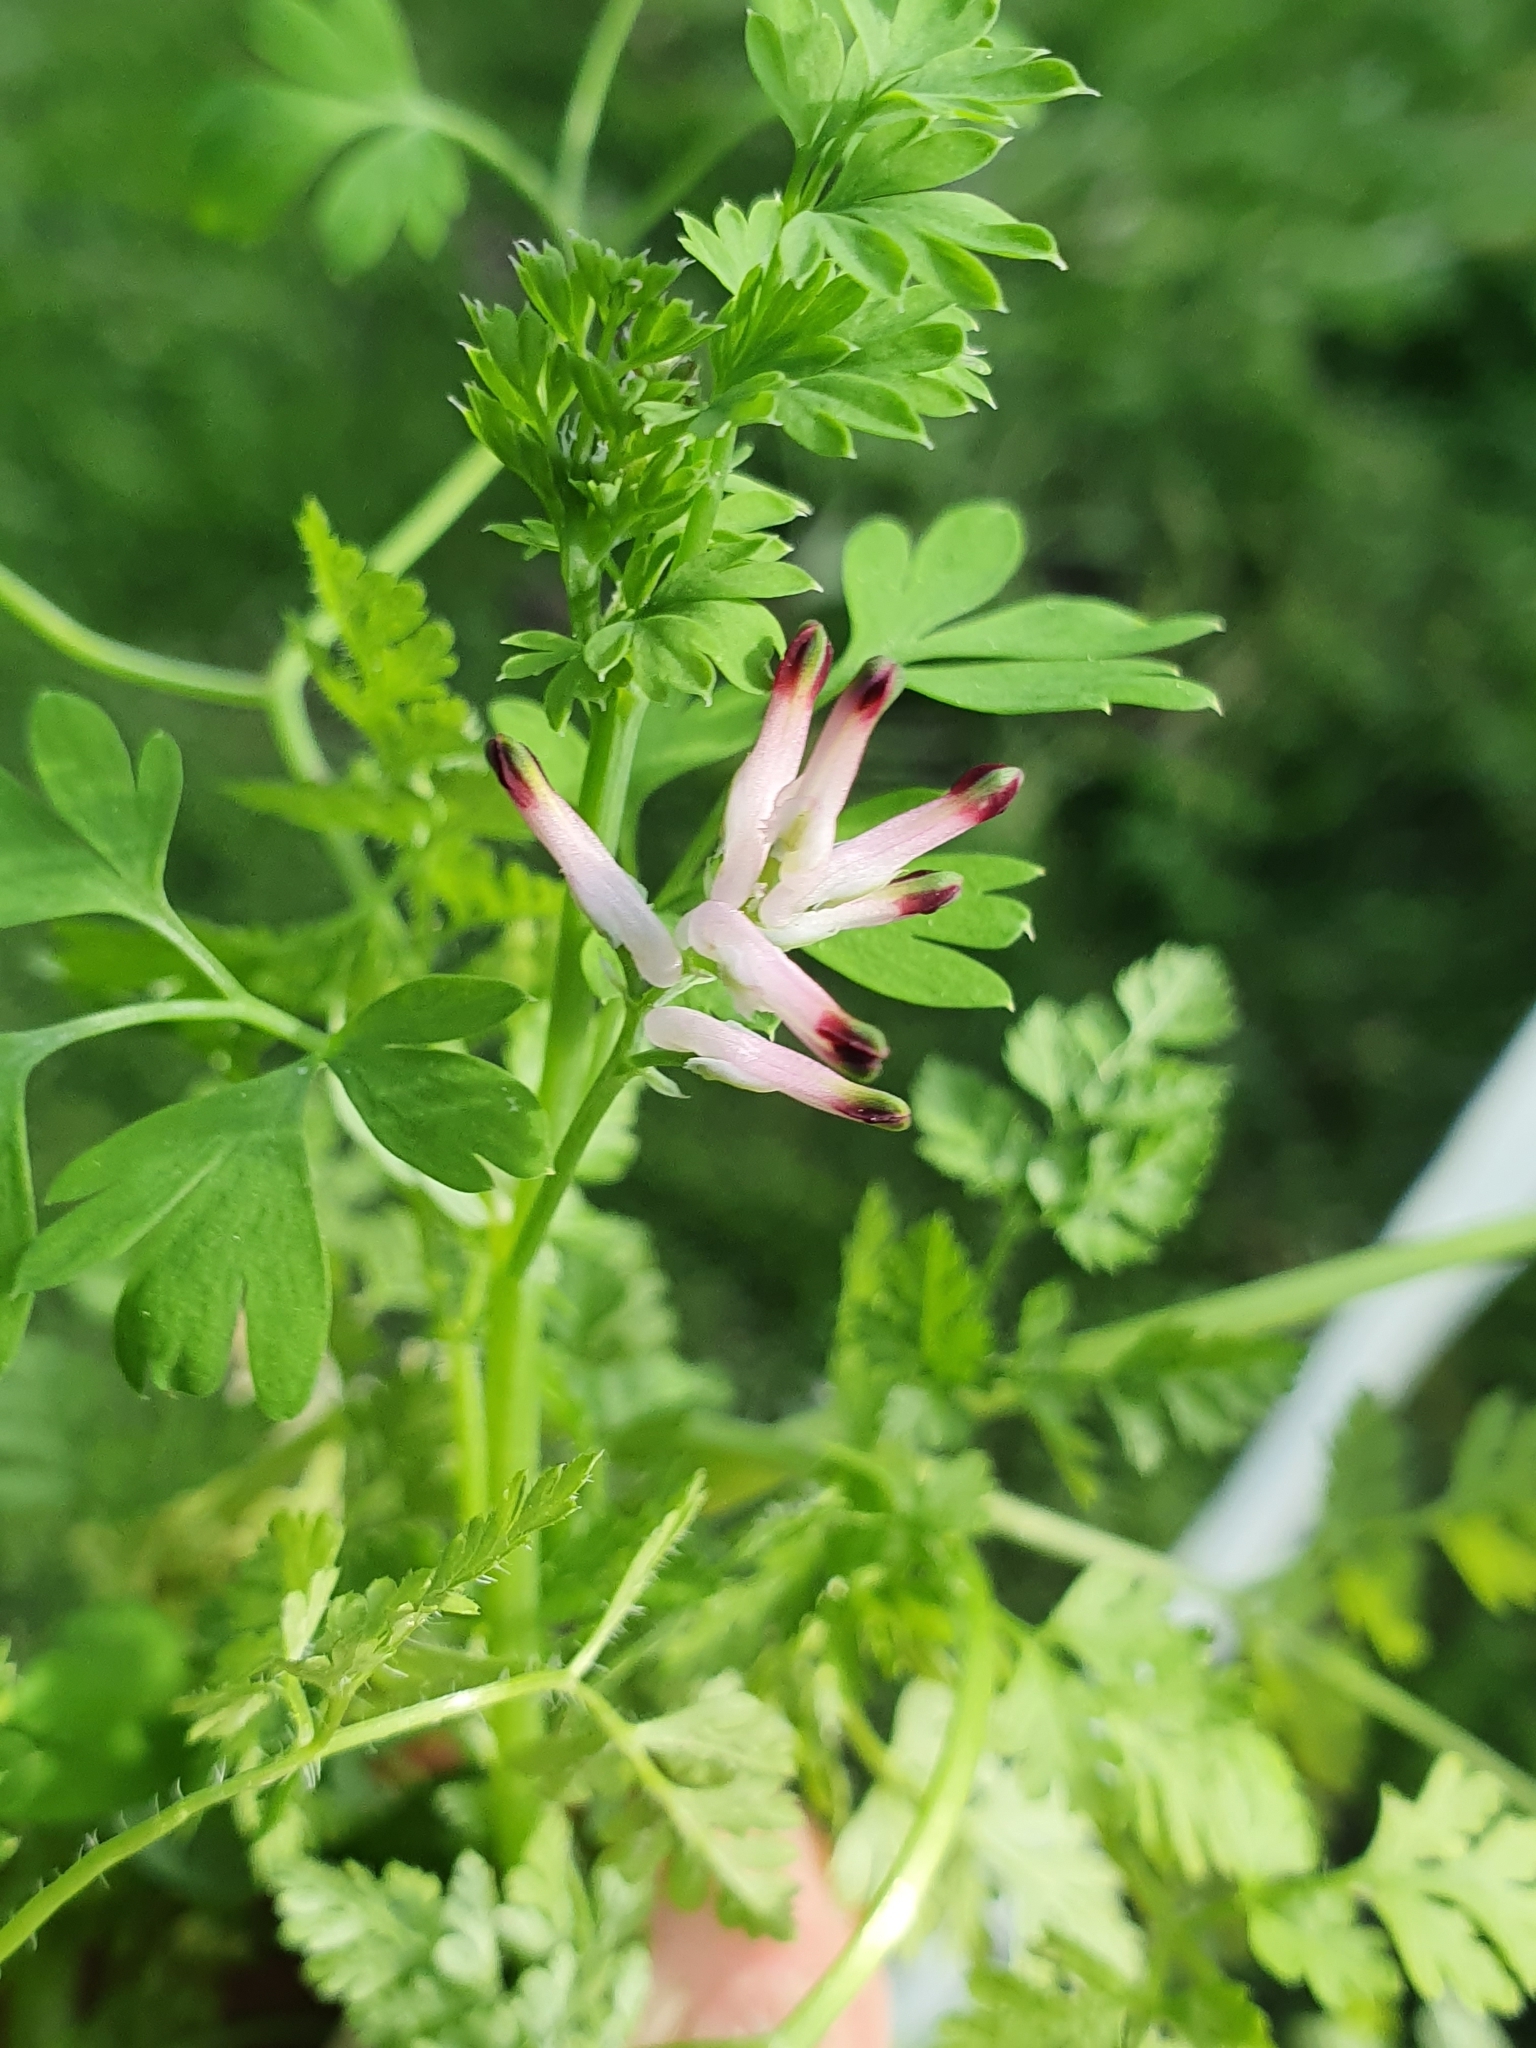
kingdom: Plantae
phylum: Tracheophyta
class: Magnoliopsida
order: Ranunculales
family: Papaveraceae
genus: Fumaria
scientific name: Fumaria muralis
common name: Common ramping-fumitory
